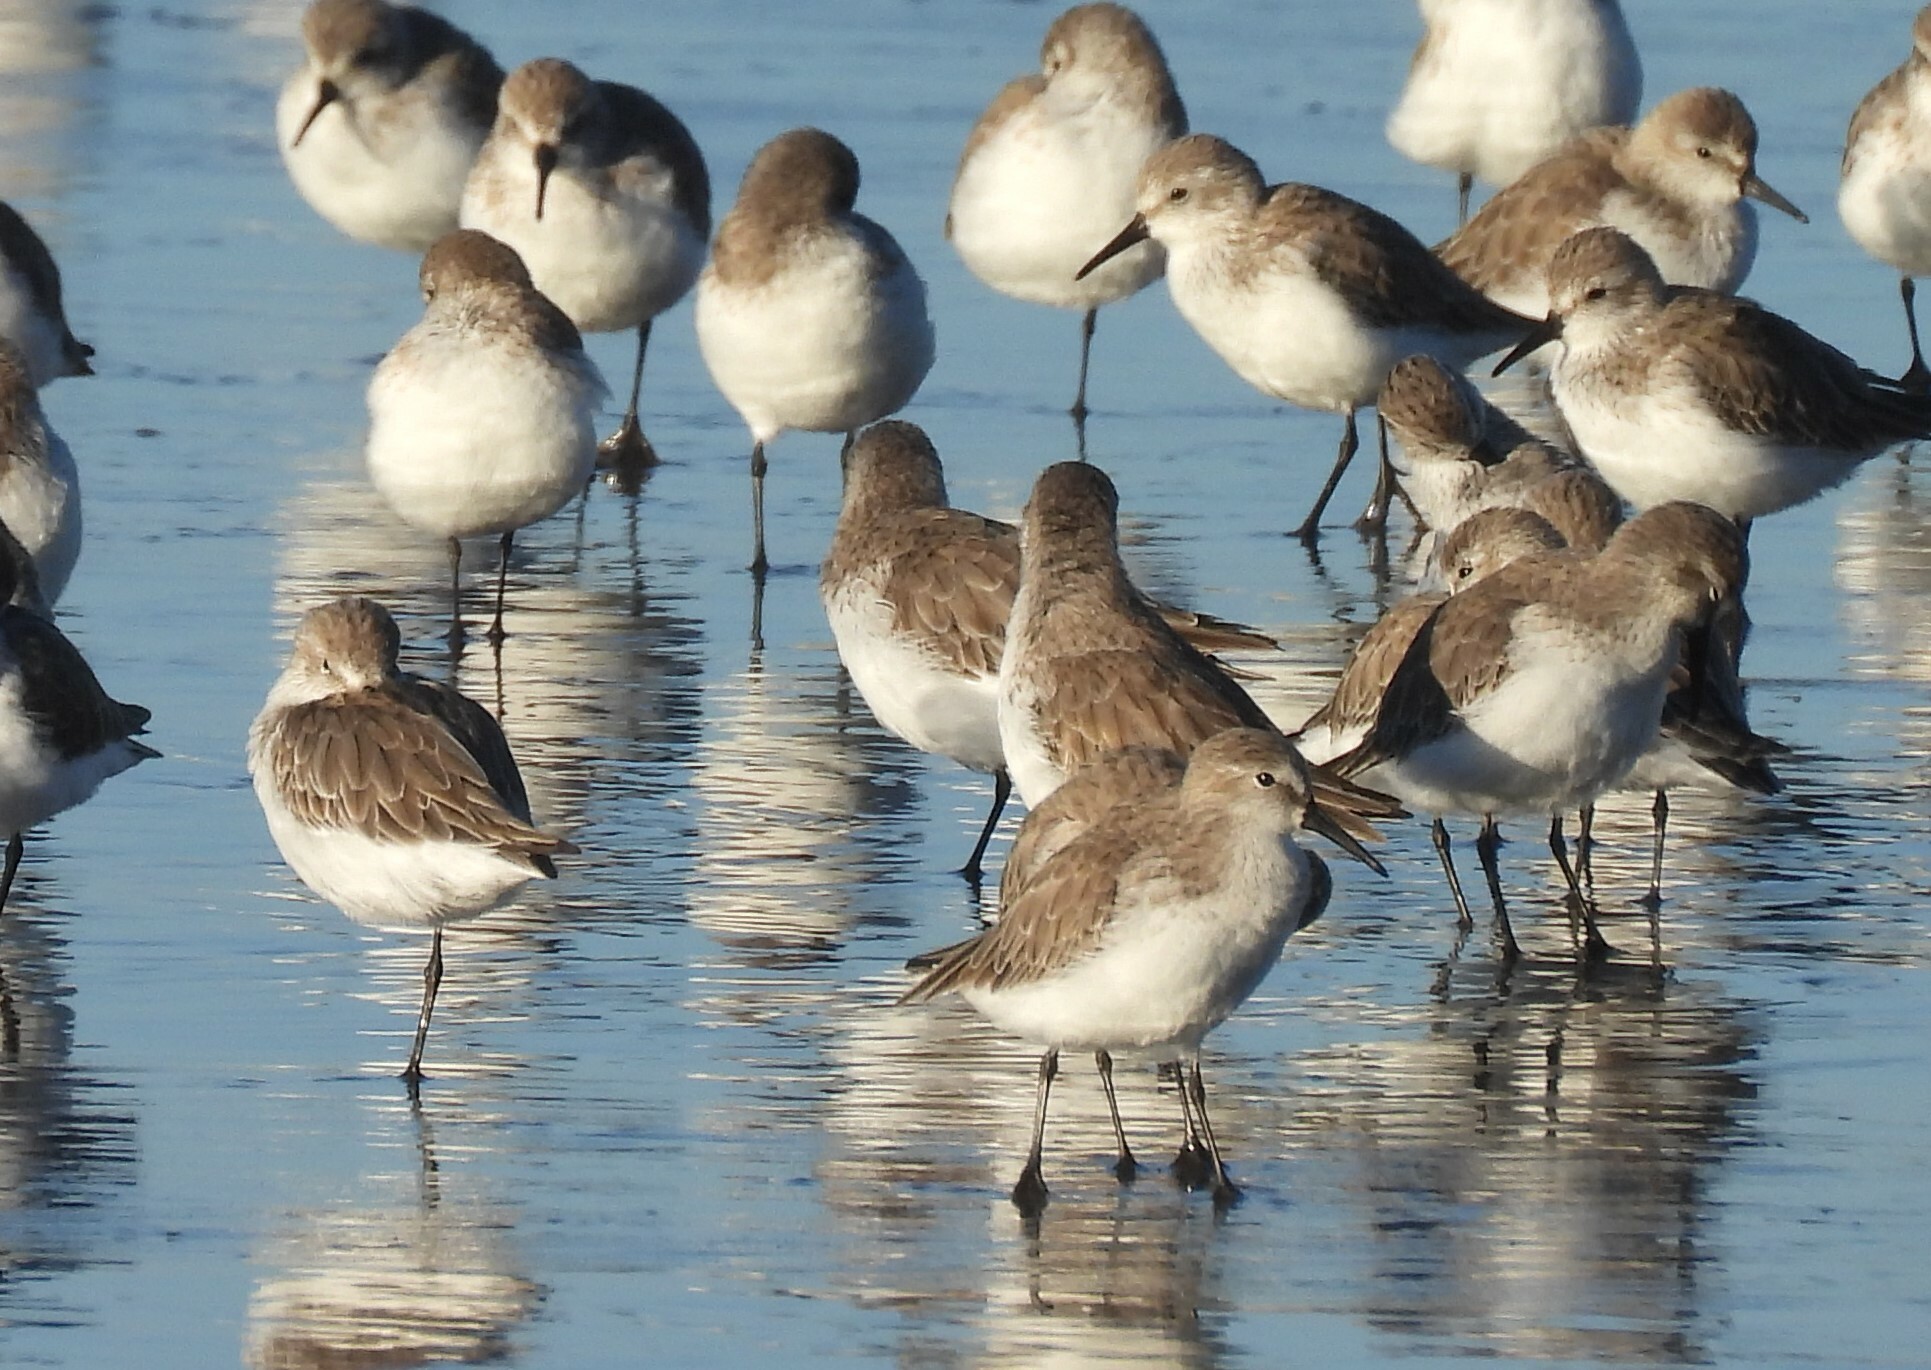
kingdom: Animalia
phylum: Chordata
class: Aves
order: Charadriiformes
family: Scolopacidae
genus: Calidris
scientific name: Calidris mauri
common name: Western sandpiper
